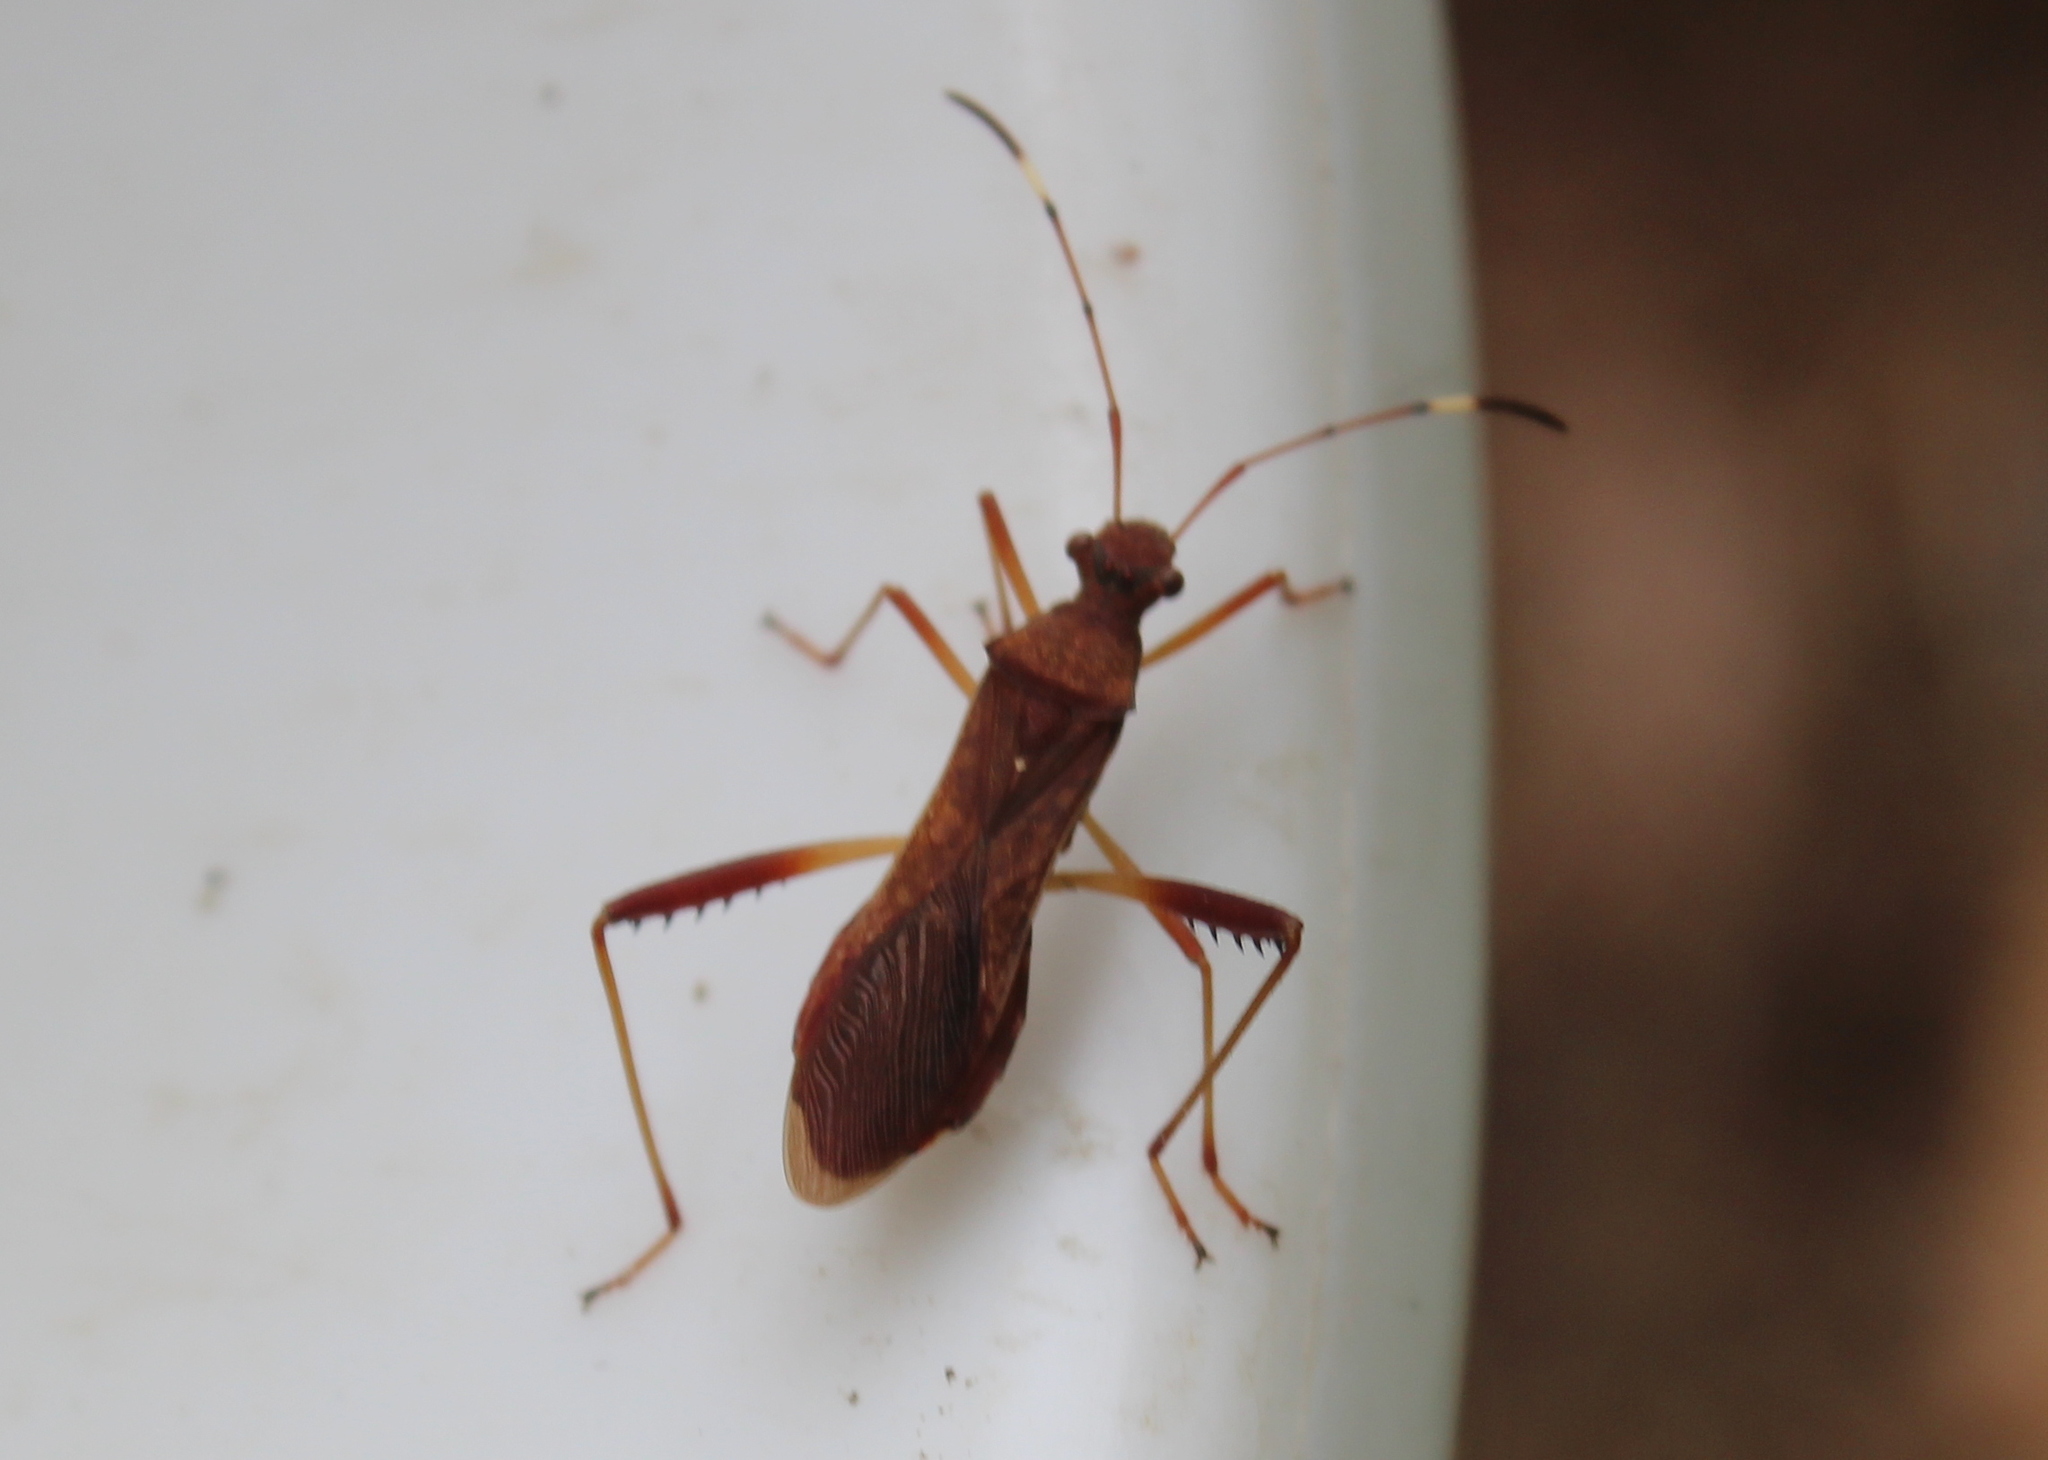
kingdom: Animalia
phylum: Arthropoda
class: Insecta
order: Hemiptera
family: Alydidae
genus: Megalotomus
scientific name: Megalotomus quinquespinosus
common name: Lupine bug
